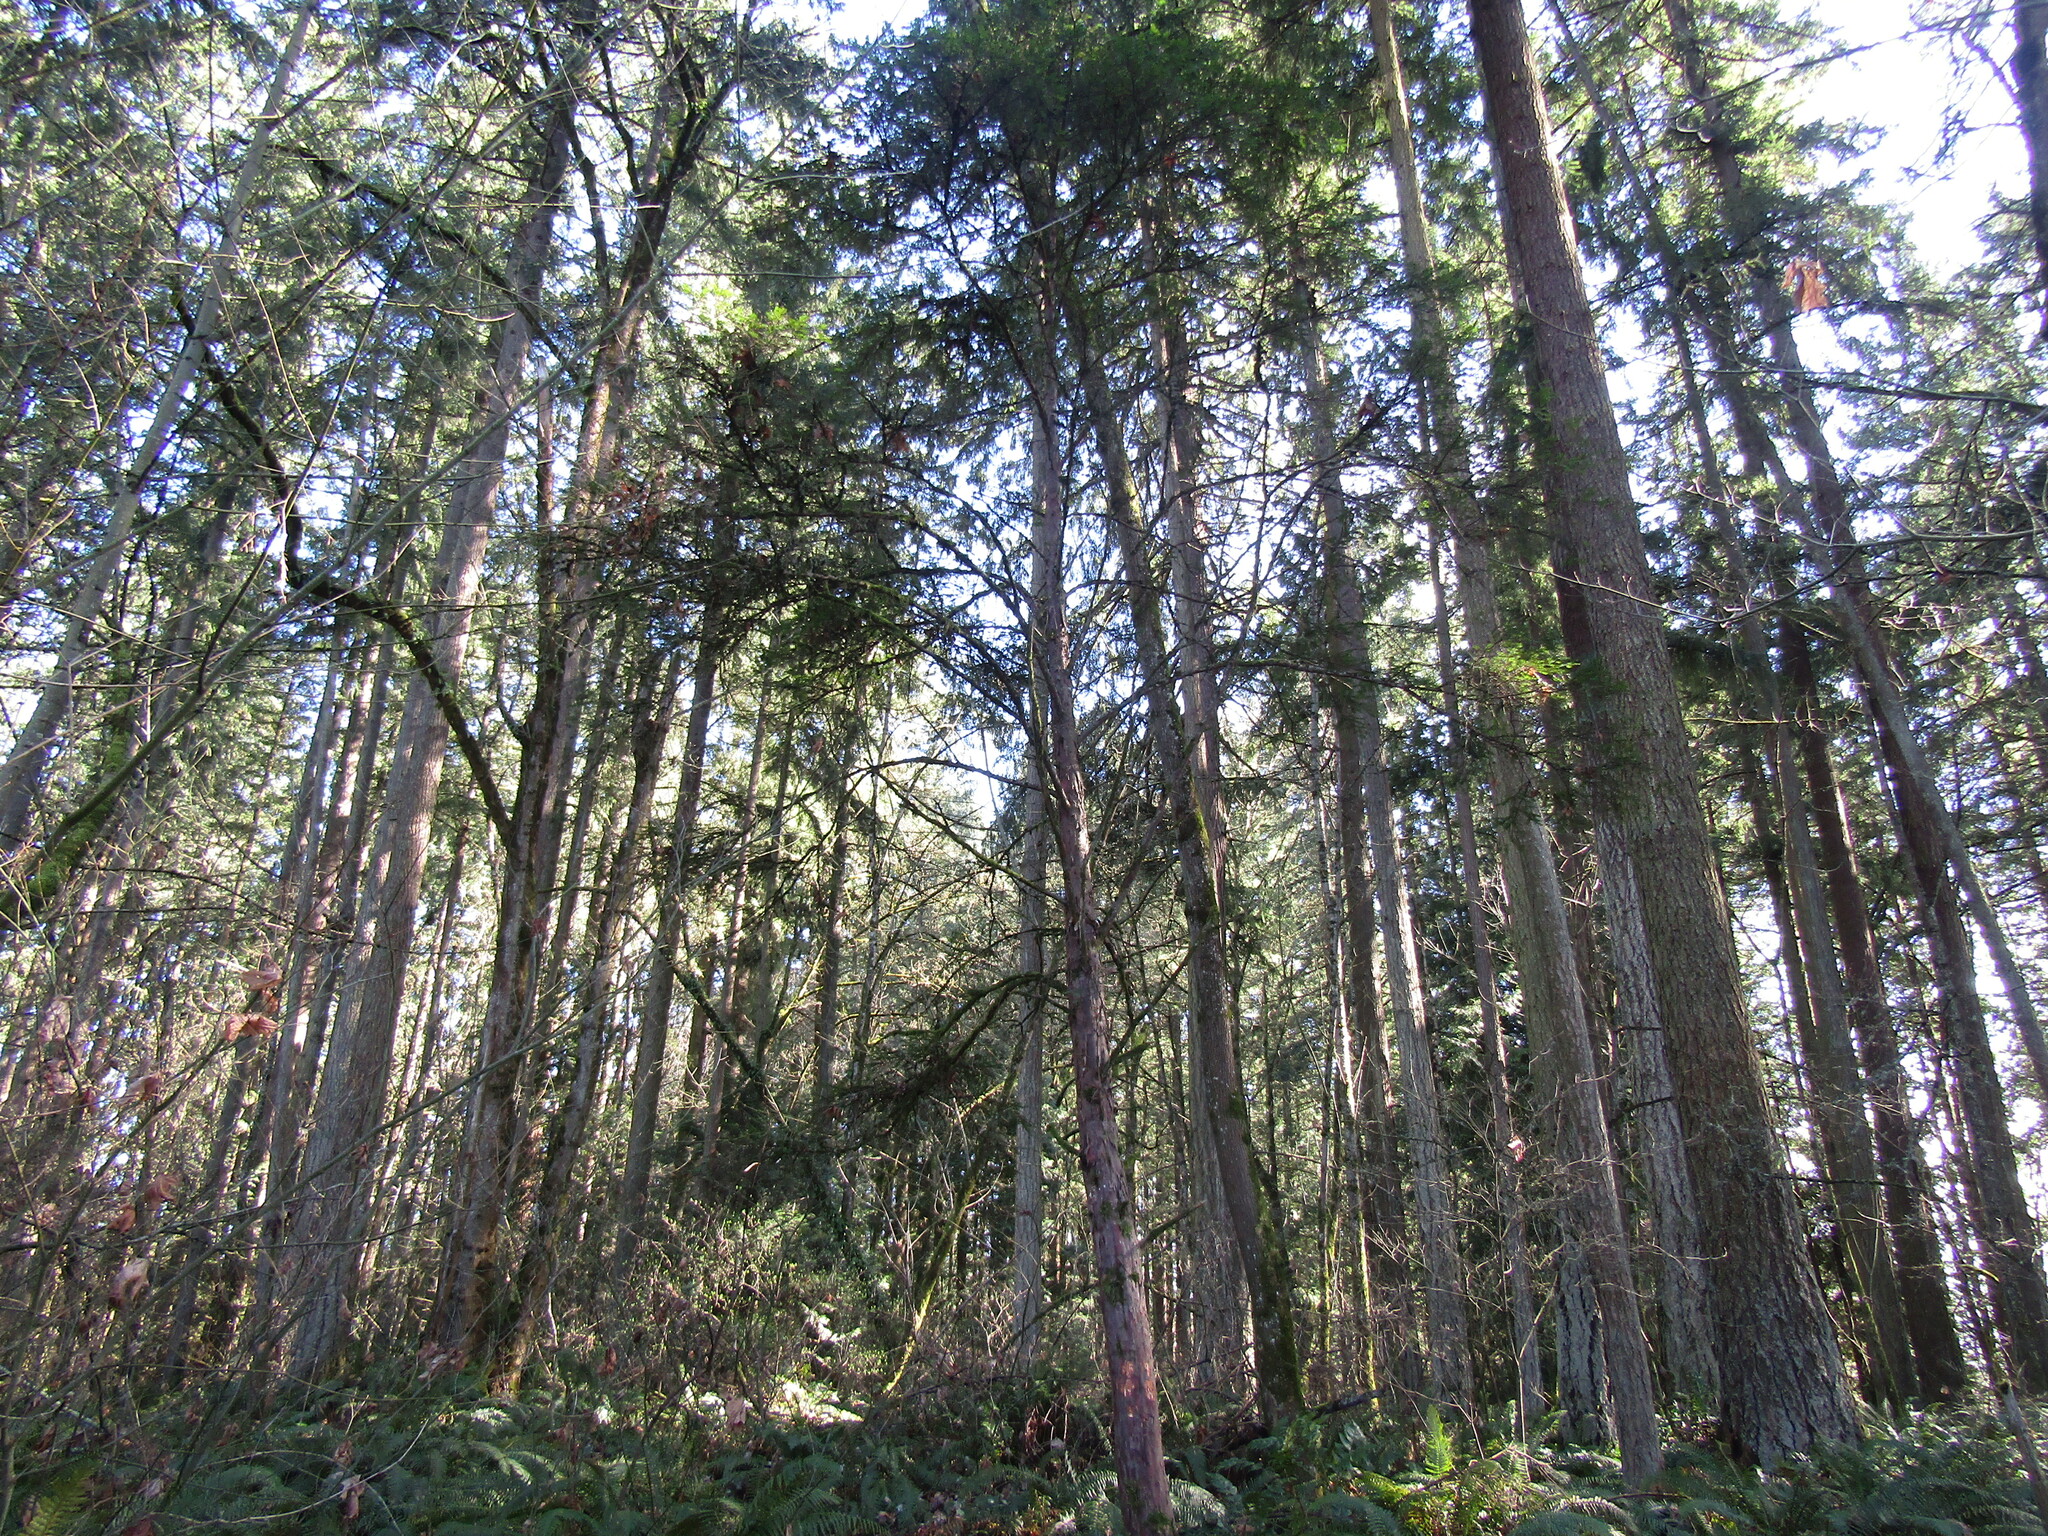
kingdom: Plantae
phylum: Tracheophyta
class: Pinopsida
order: Pinales
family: Taxaceae
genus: Taxus
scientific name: Taxus brevifolia
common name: Pacific yew
